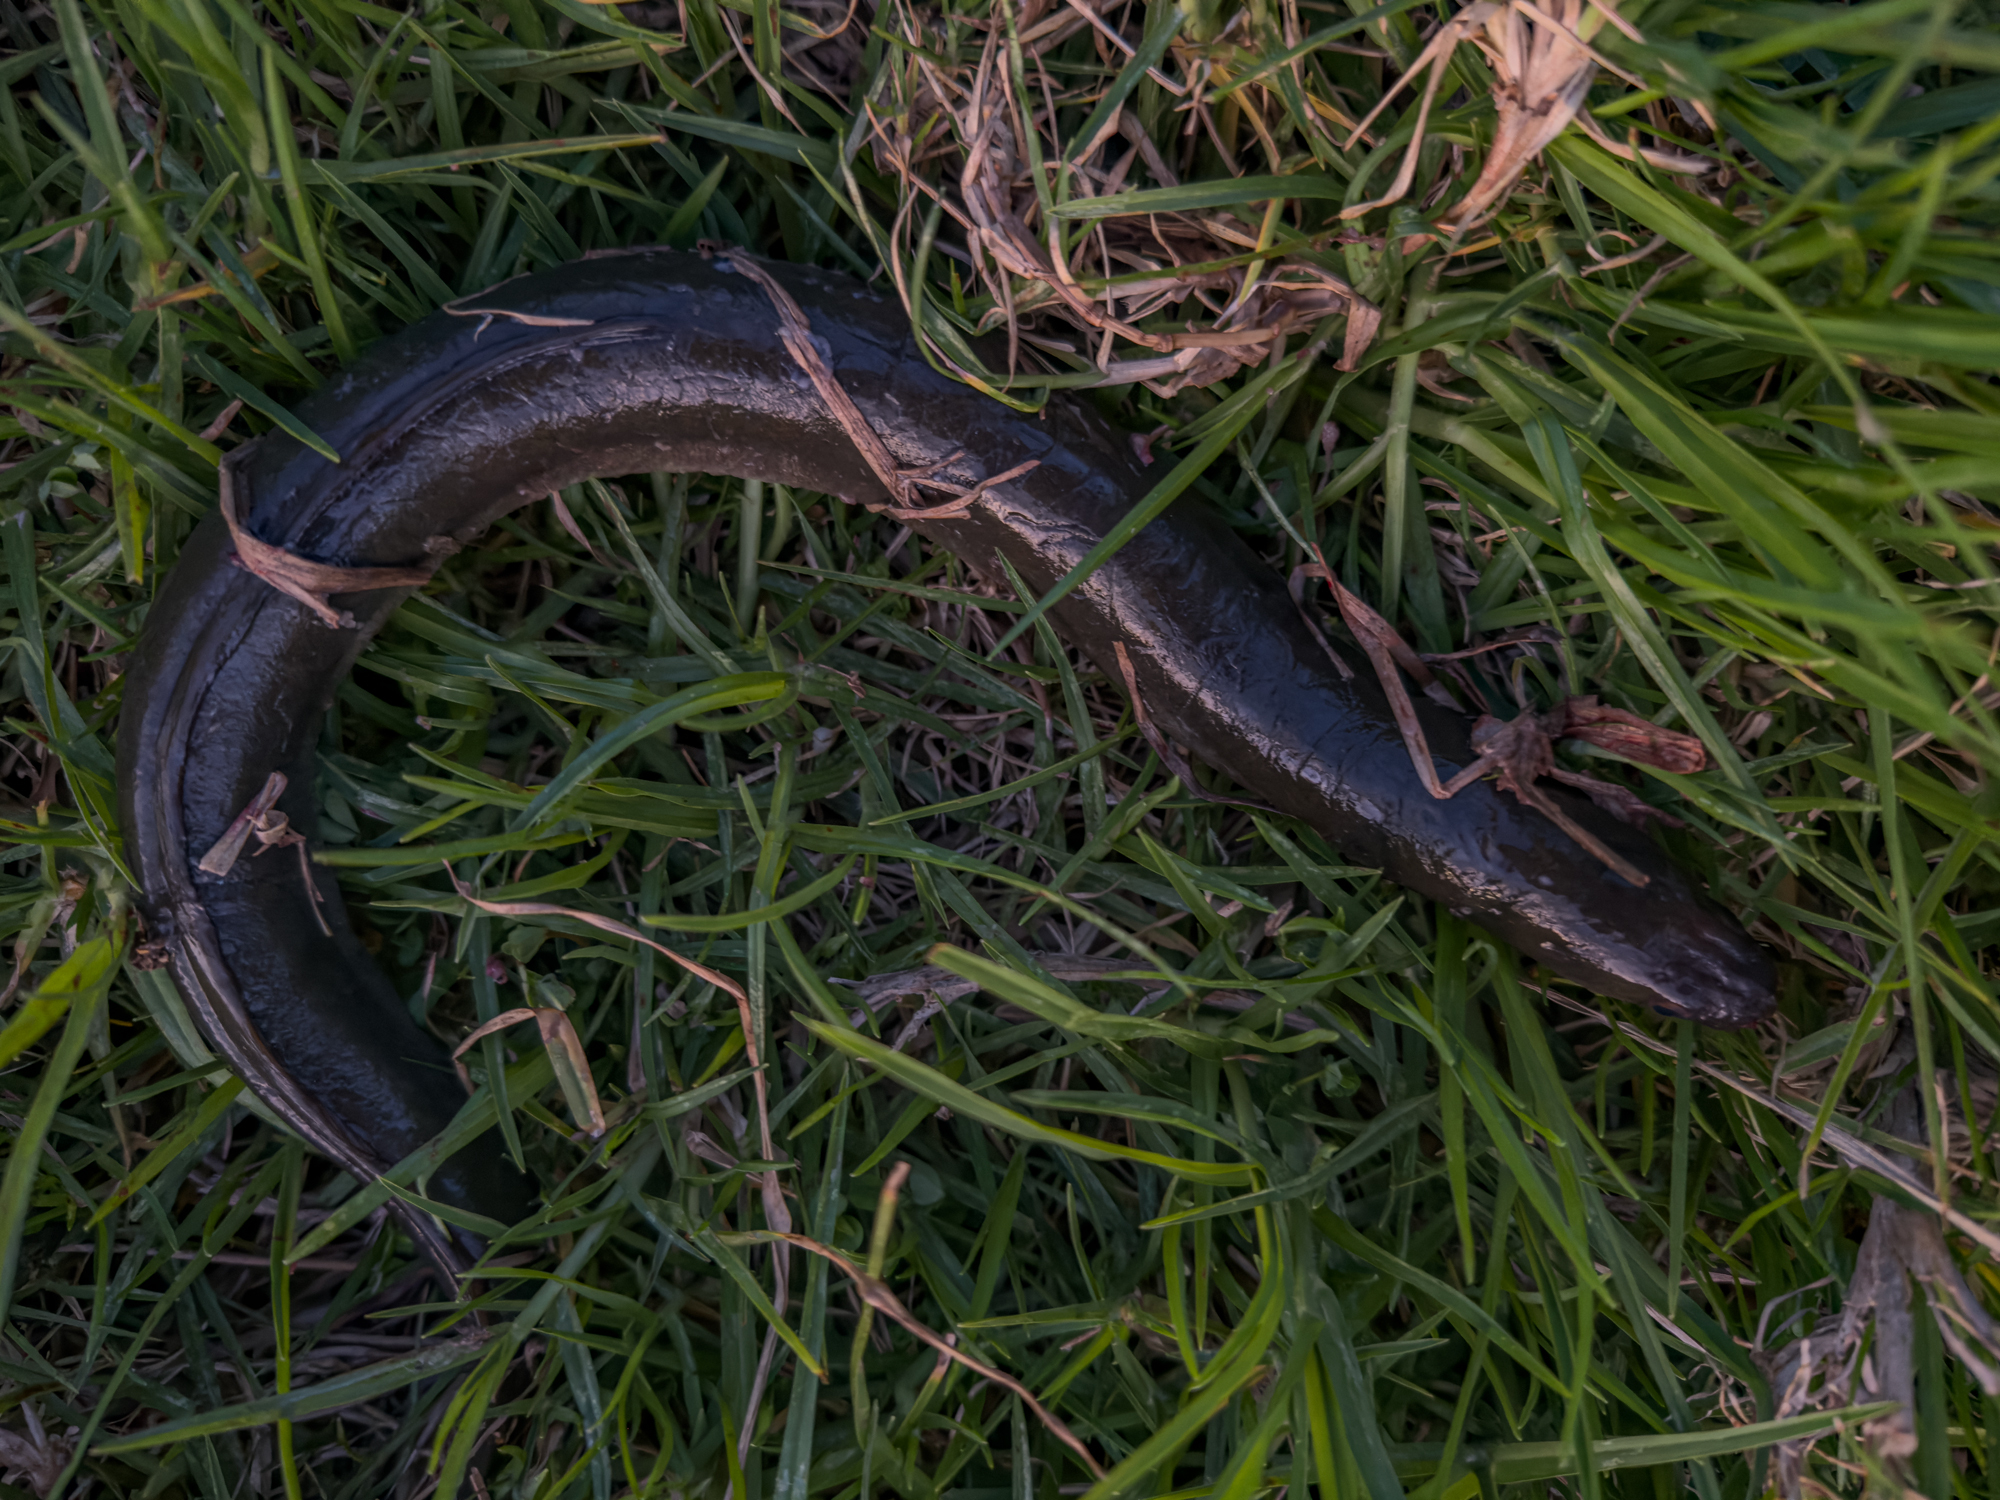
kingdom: Animalia
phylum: Chordata
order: Anguilliformes
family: Anguillidae
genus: Anguilla
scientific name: Anguilla australis
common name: Shortfin eel
